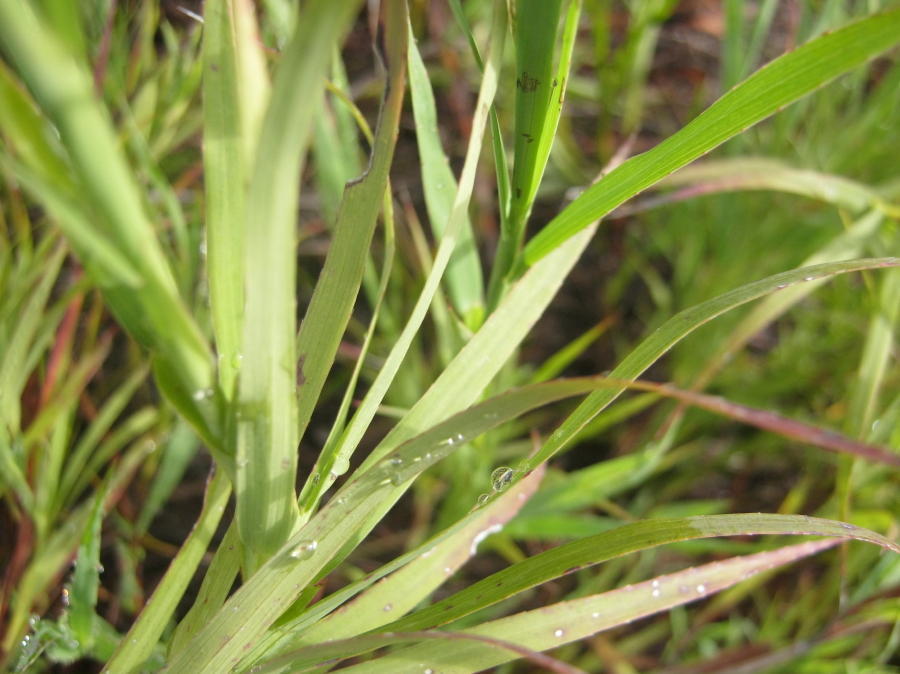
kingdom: Plantae
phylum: Tracheophyta
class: Magnoliopsida
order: Rosales
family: Rosaceae
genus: Cliffortia
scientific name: Cliffortia graminea
